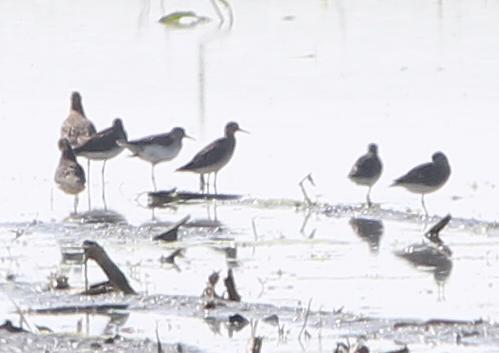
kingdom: Animalia
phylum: Chordata
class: Aves
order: Charadriiformes
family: Scolopacidae
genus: Tringa
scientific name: Tringa glareola
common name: Wood sandpiper
